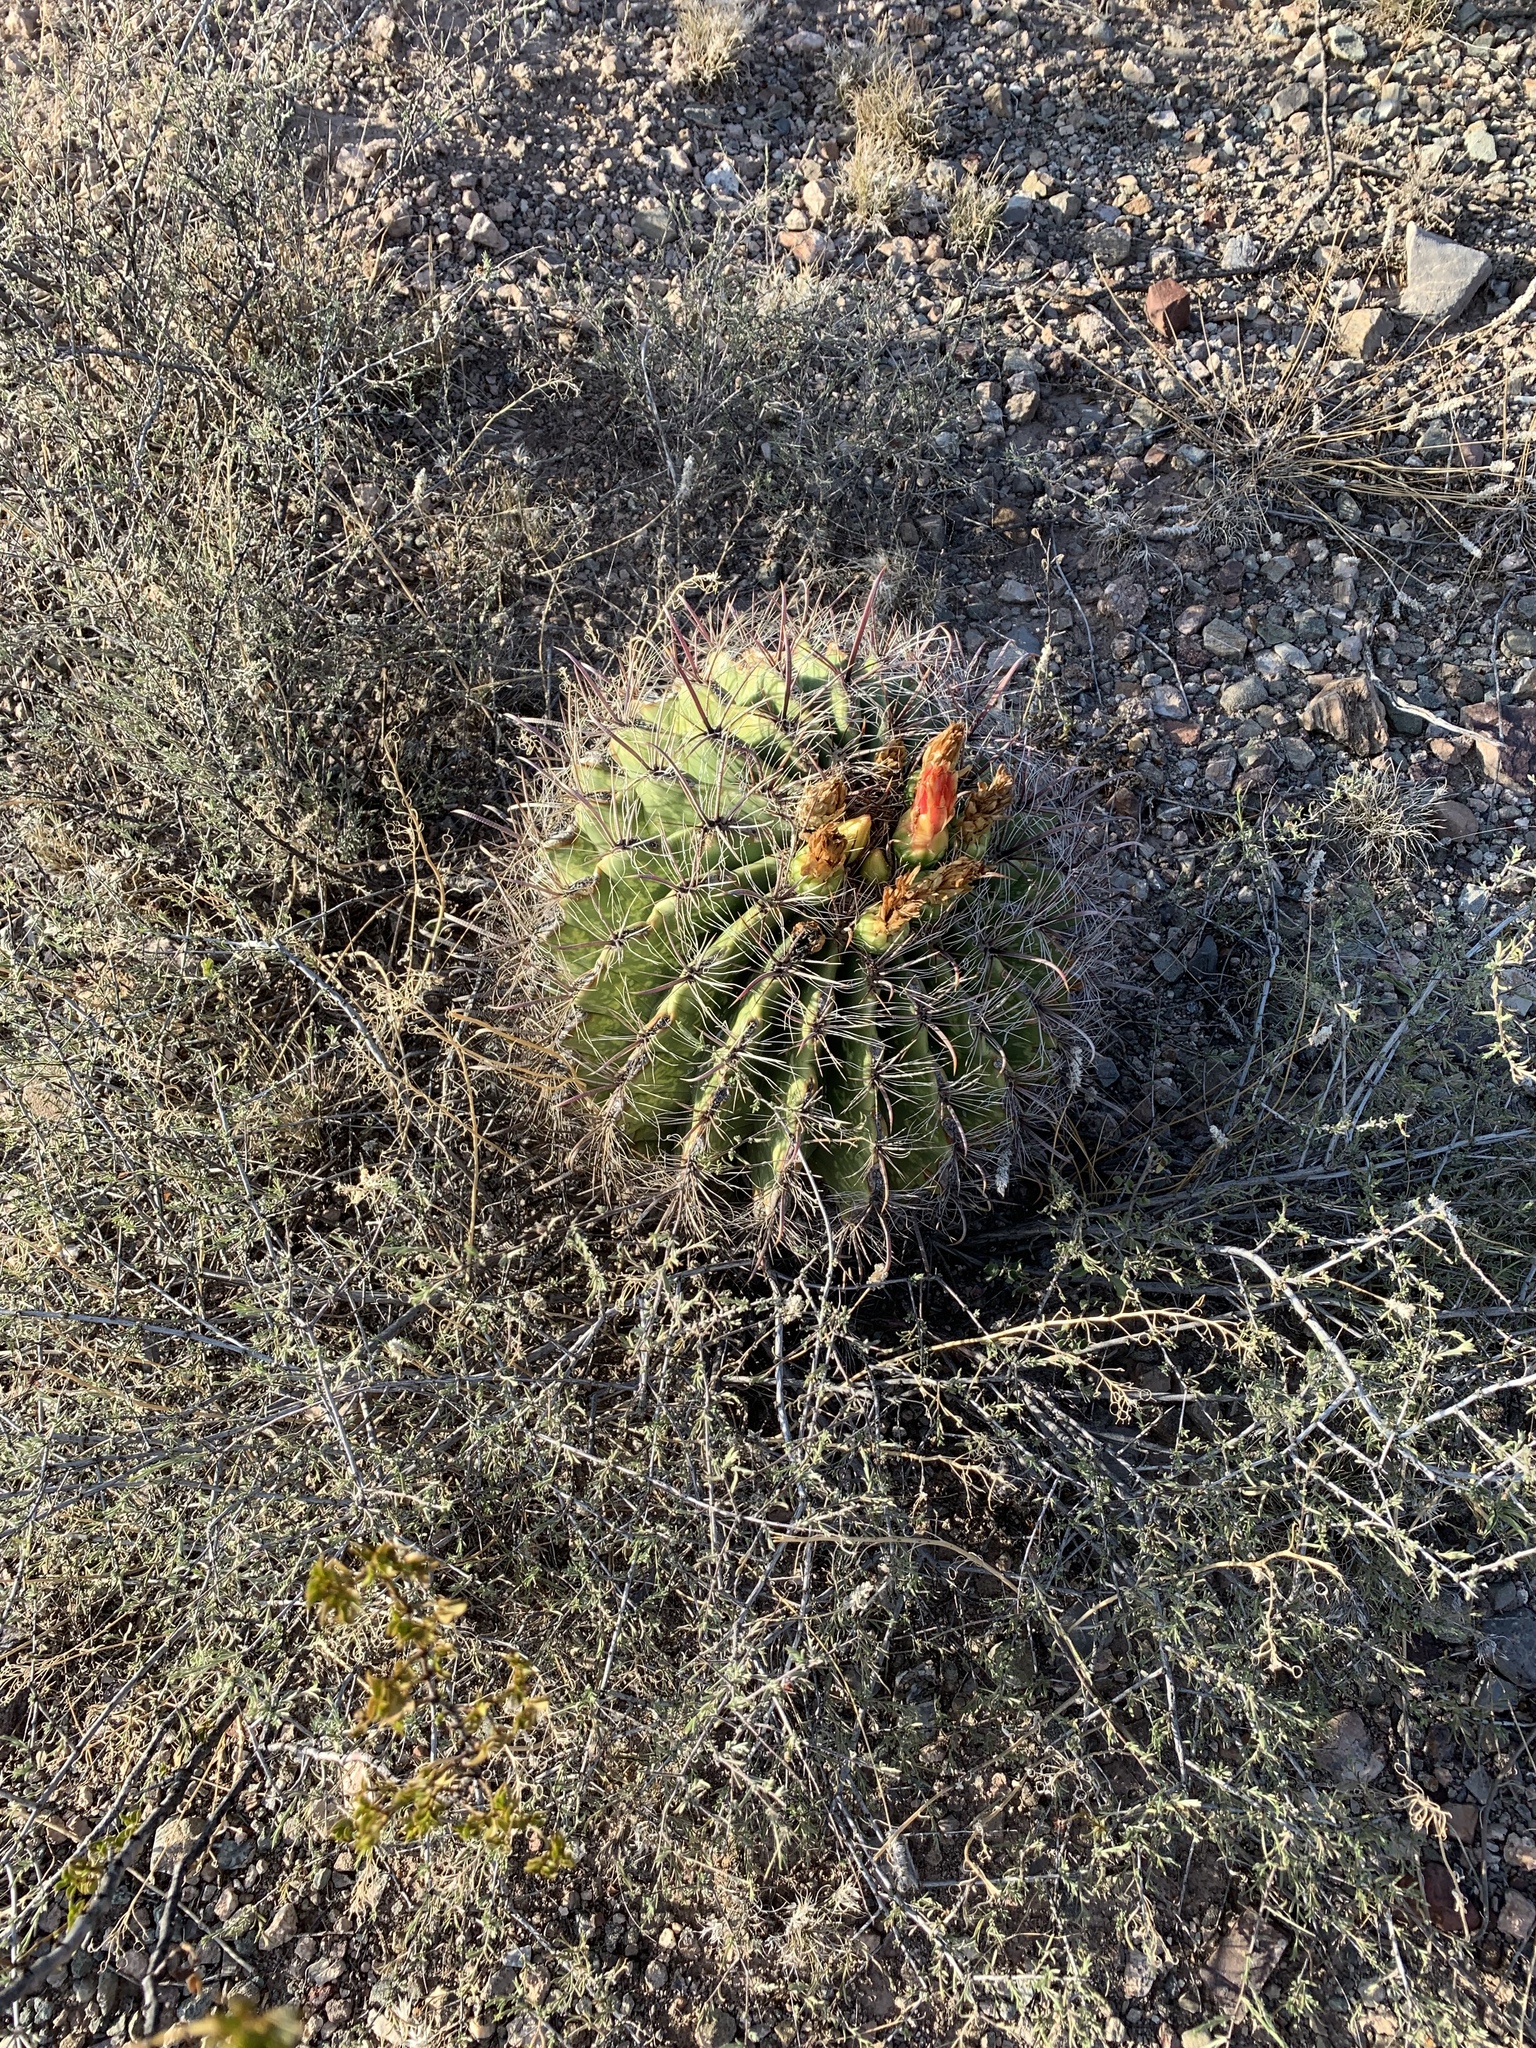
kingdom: Plantae
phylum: Tracheophyta
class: Magnoliopsida
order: Caryophyllales
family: Cactaceae
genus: Ferocactus
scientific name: Ferocactus wislizeni
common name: Candy barrel cactus
